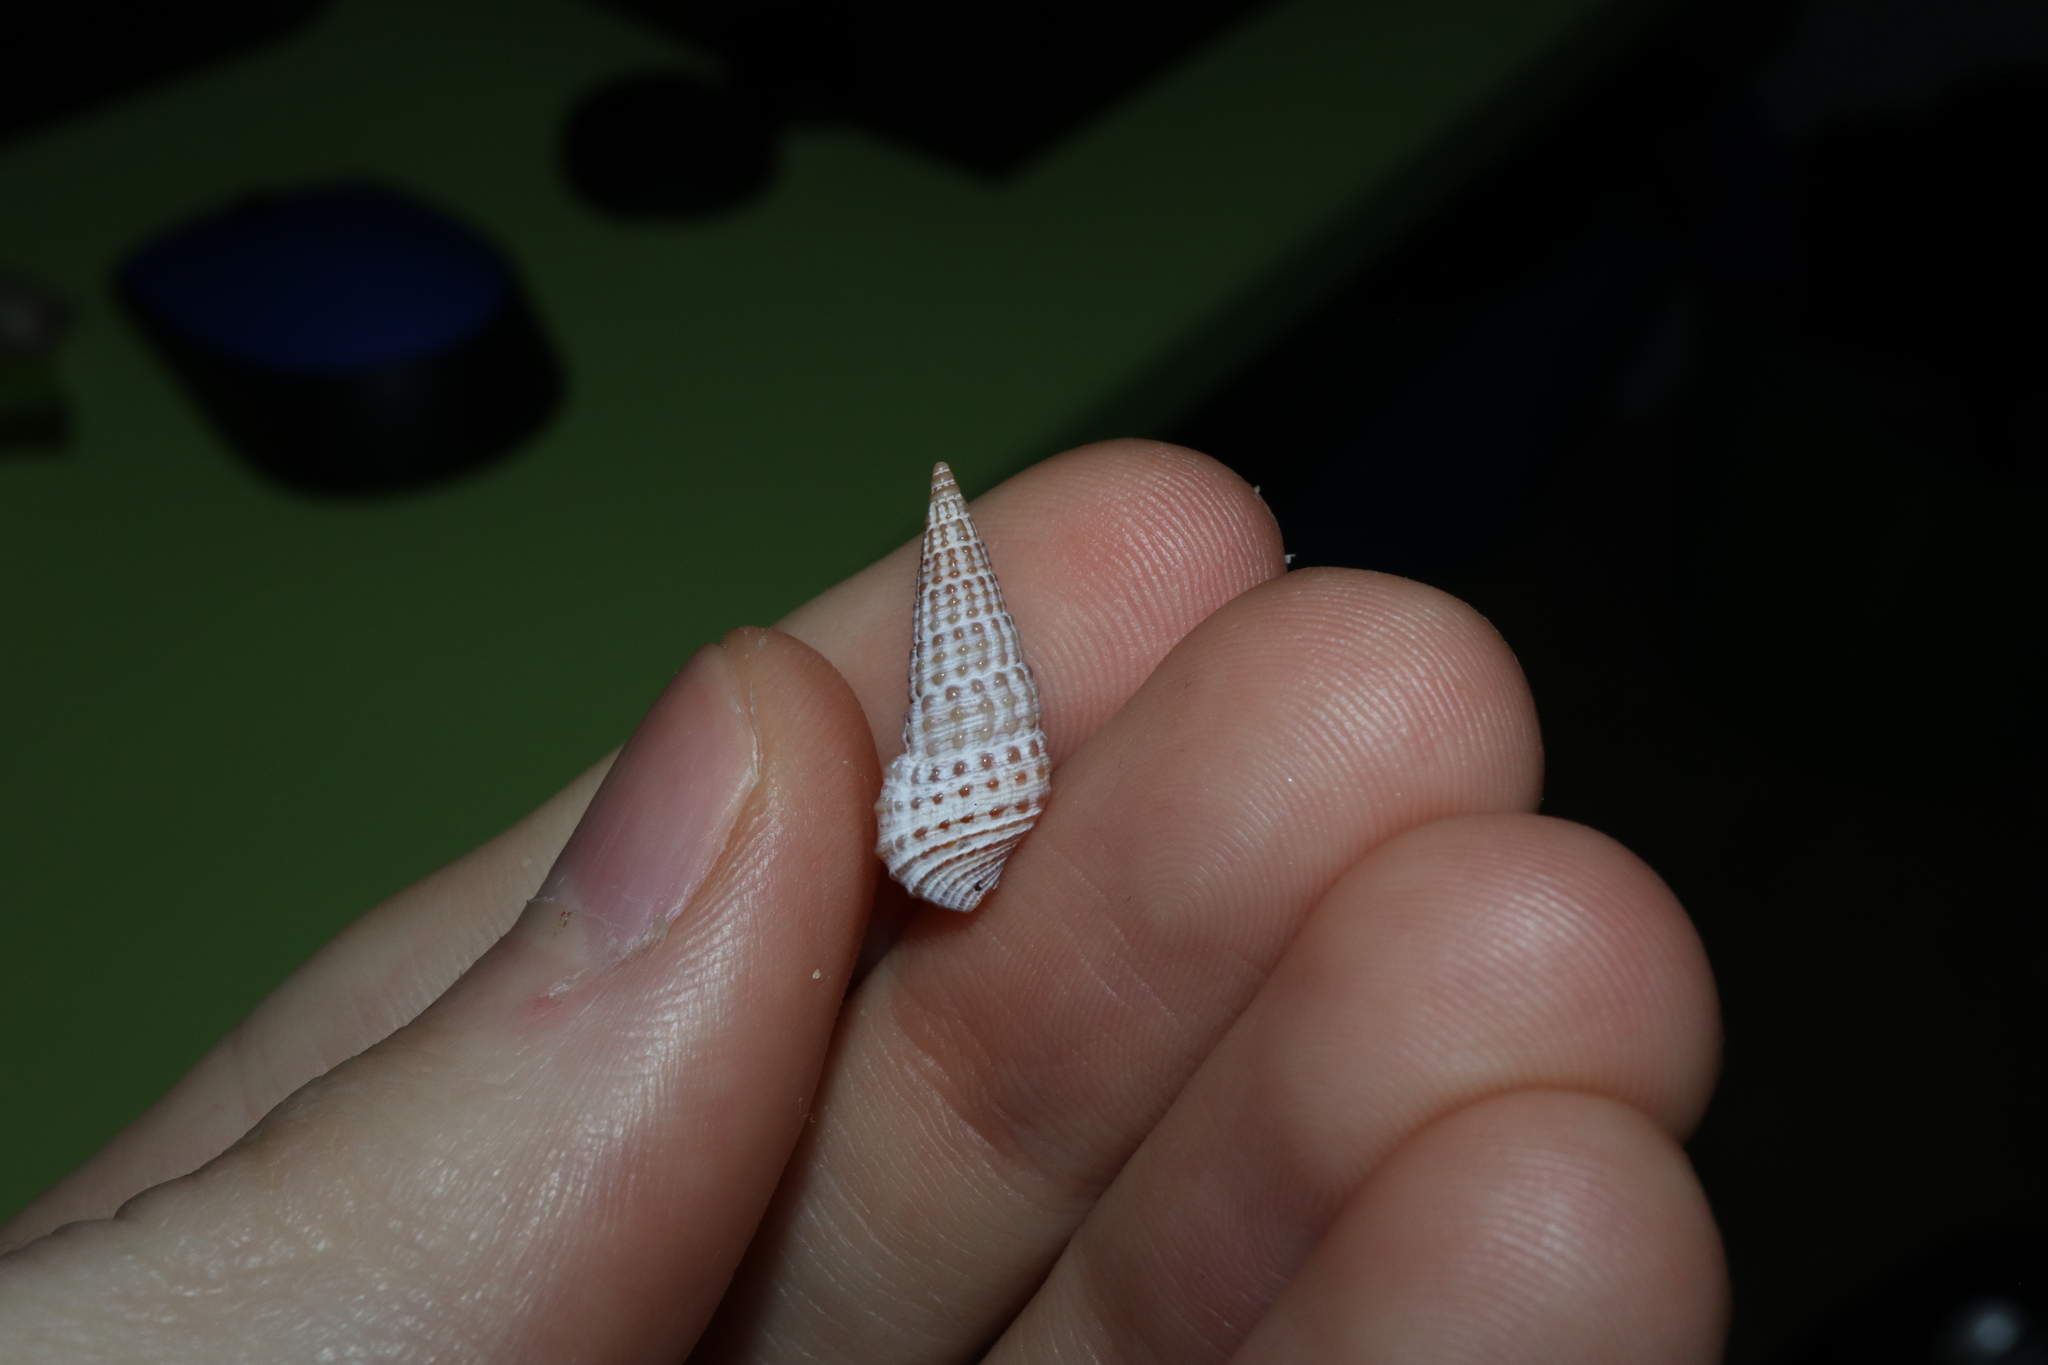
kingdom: Animalia
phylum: Mollusca
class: Gastropoda
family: Cerithiidae
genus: Cerithium
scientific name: Cerithium coralium
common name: Coral cerith
